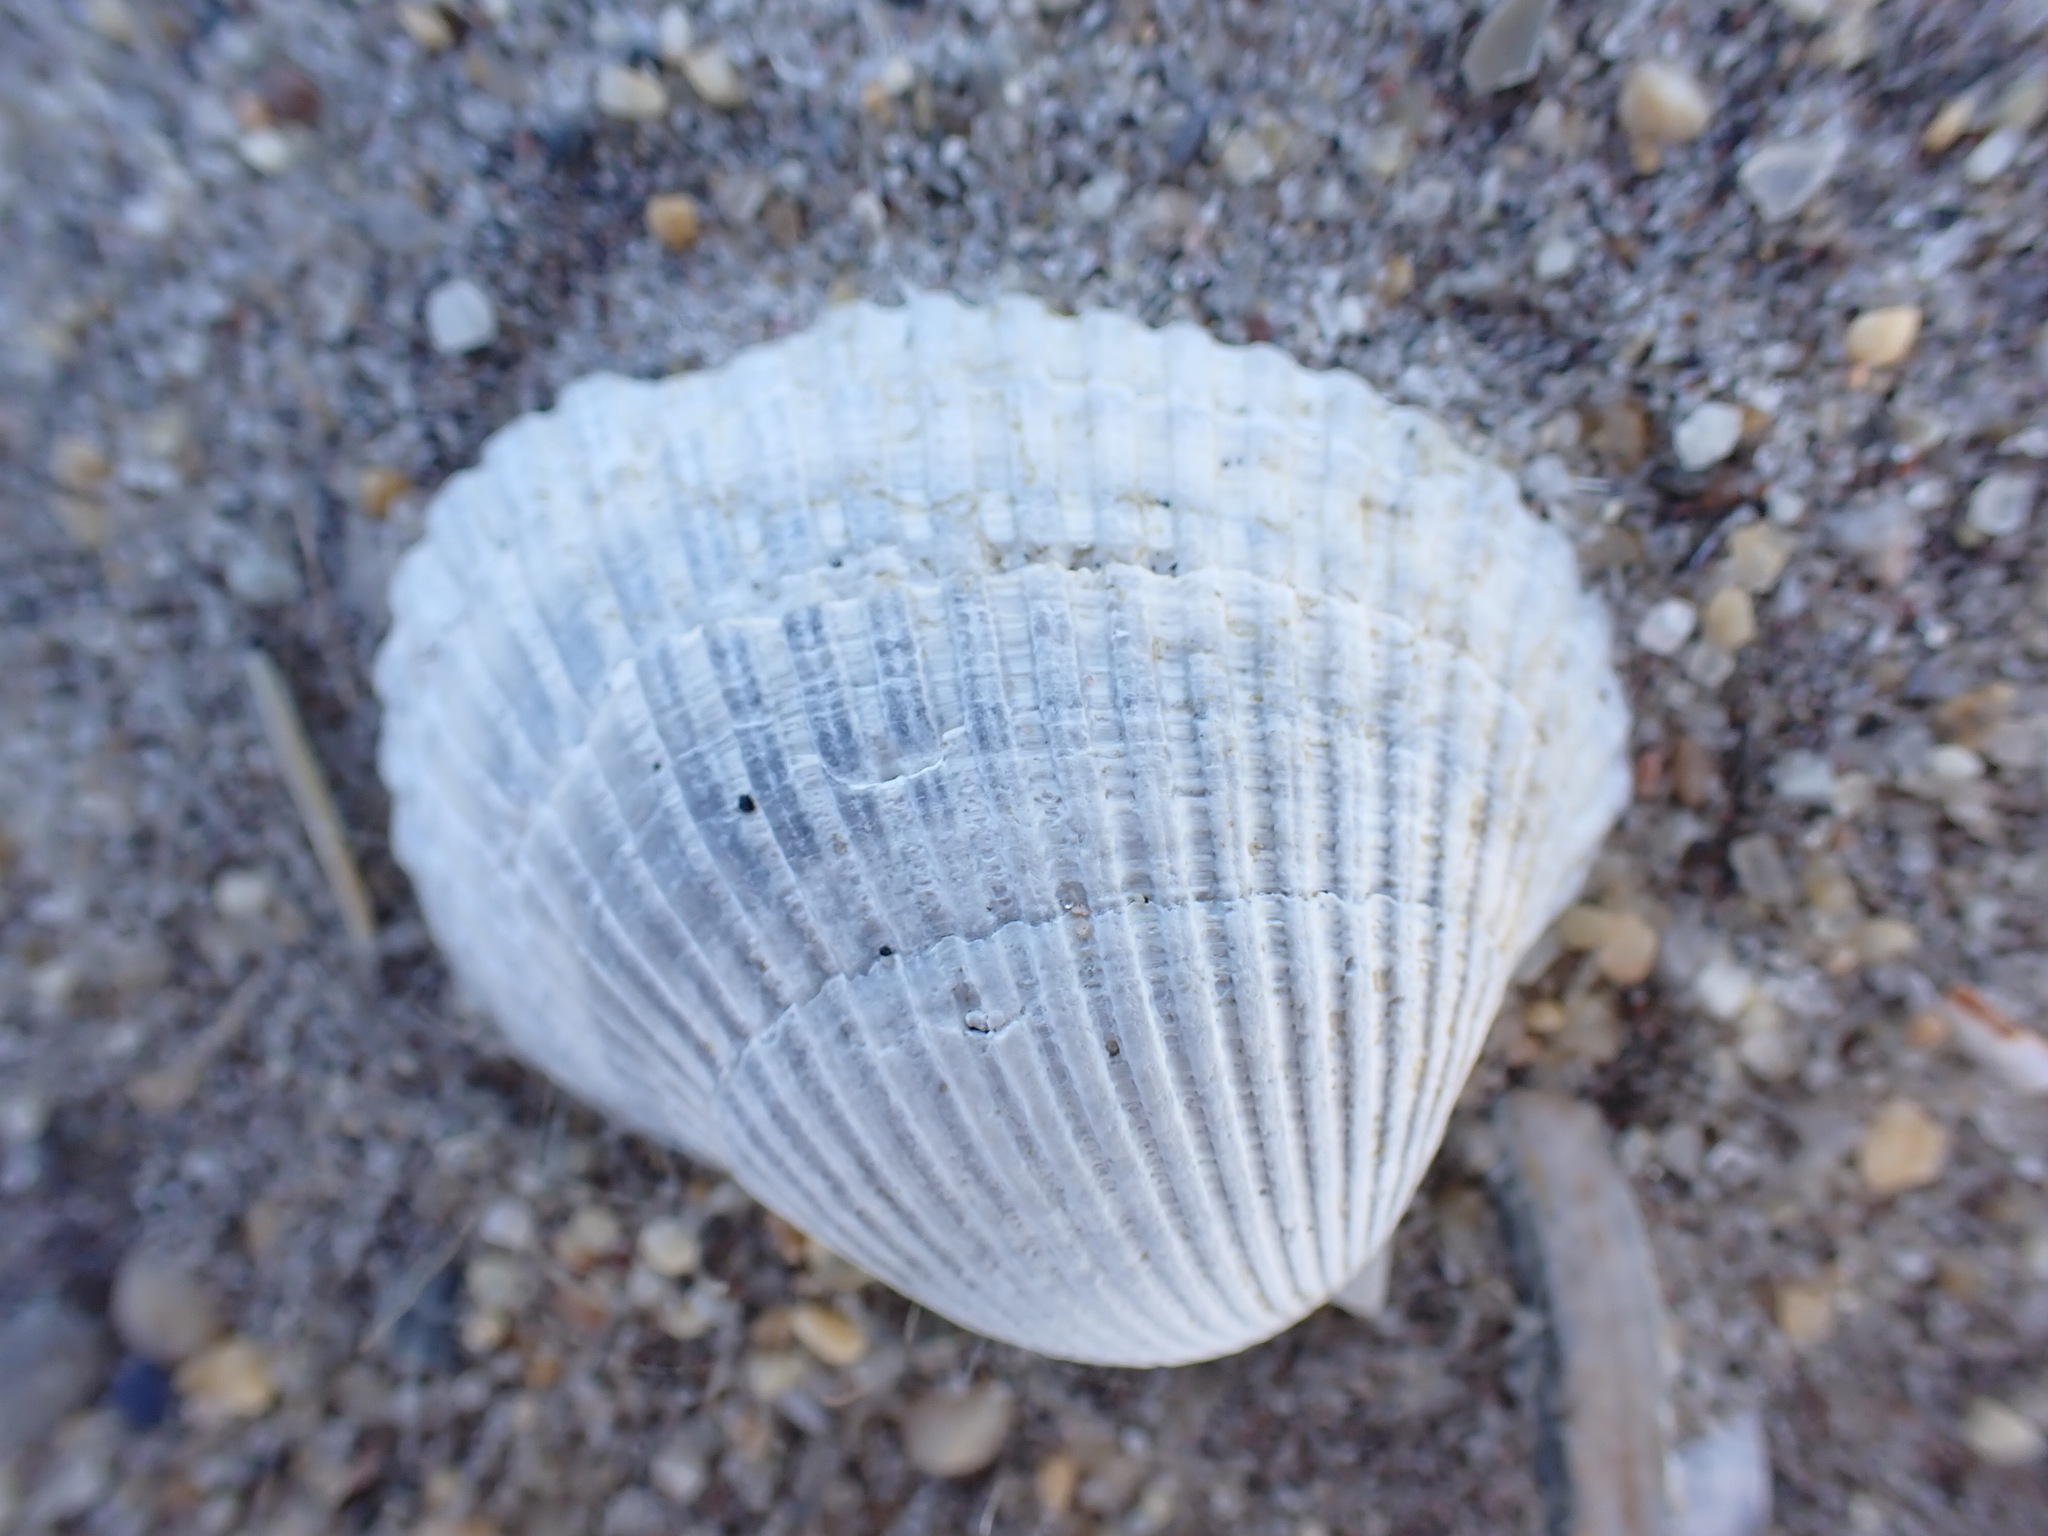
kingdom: Animalia
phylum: Mollusca
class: Bivalvia
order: Arcida
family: Arcidae
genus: Lunarca
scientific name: Lunarca ovalis
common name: Blood ark
